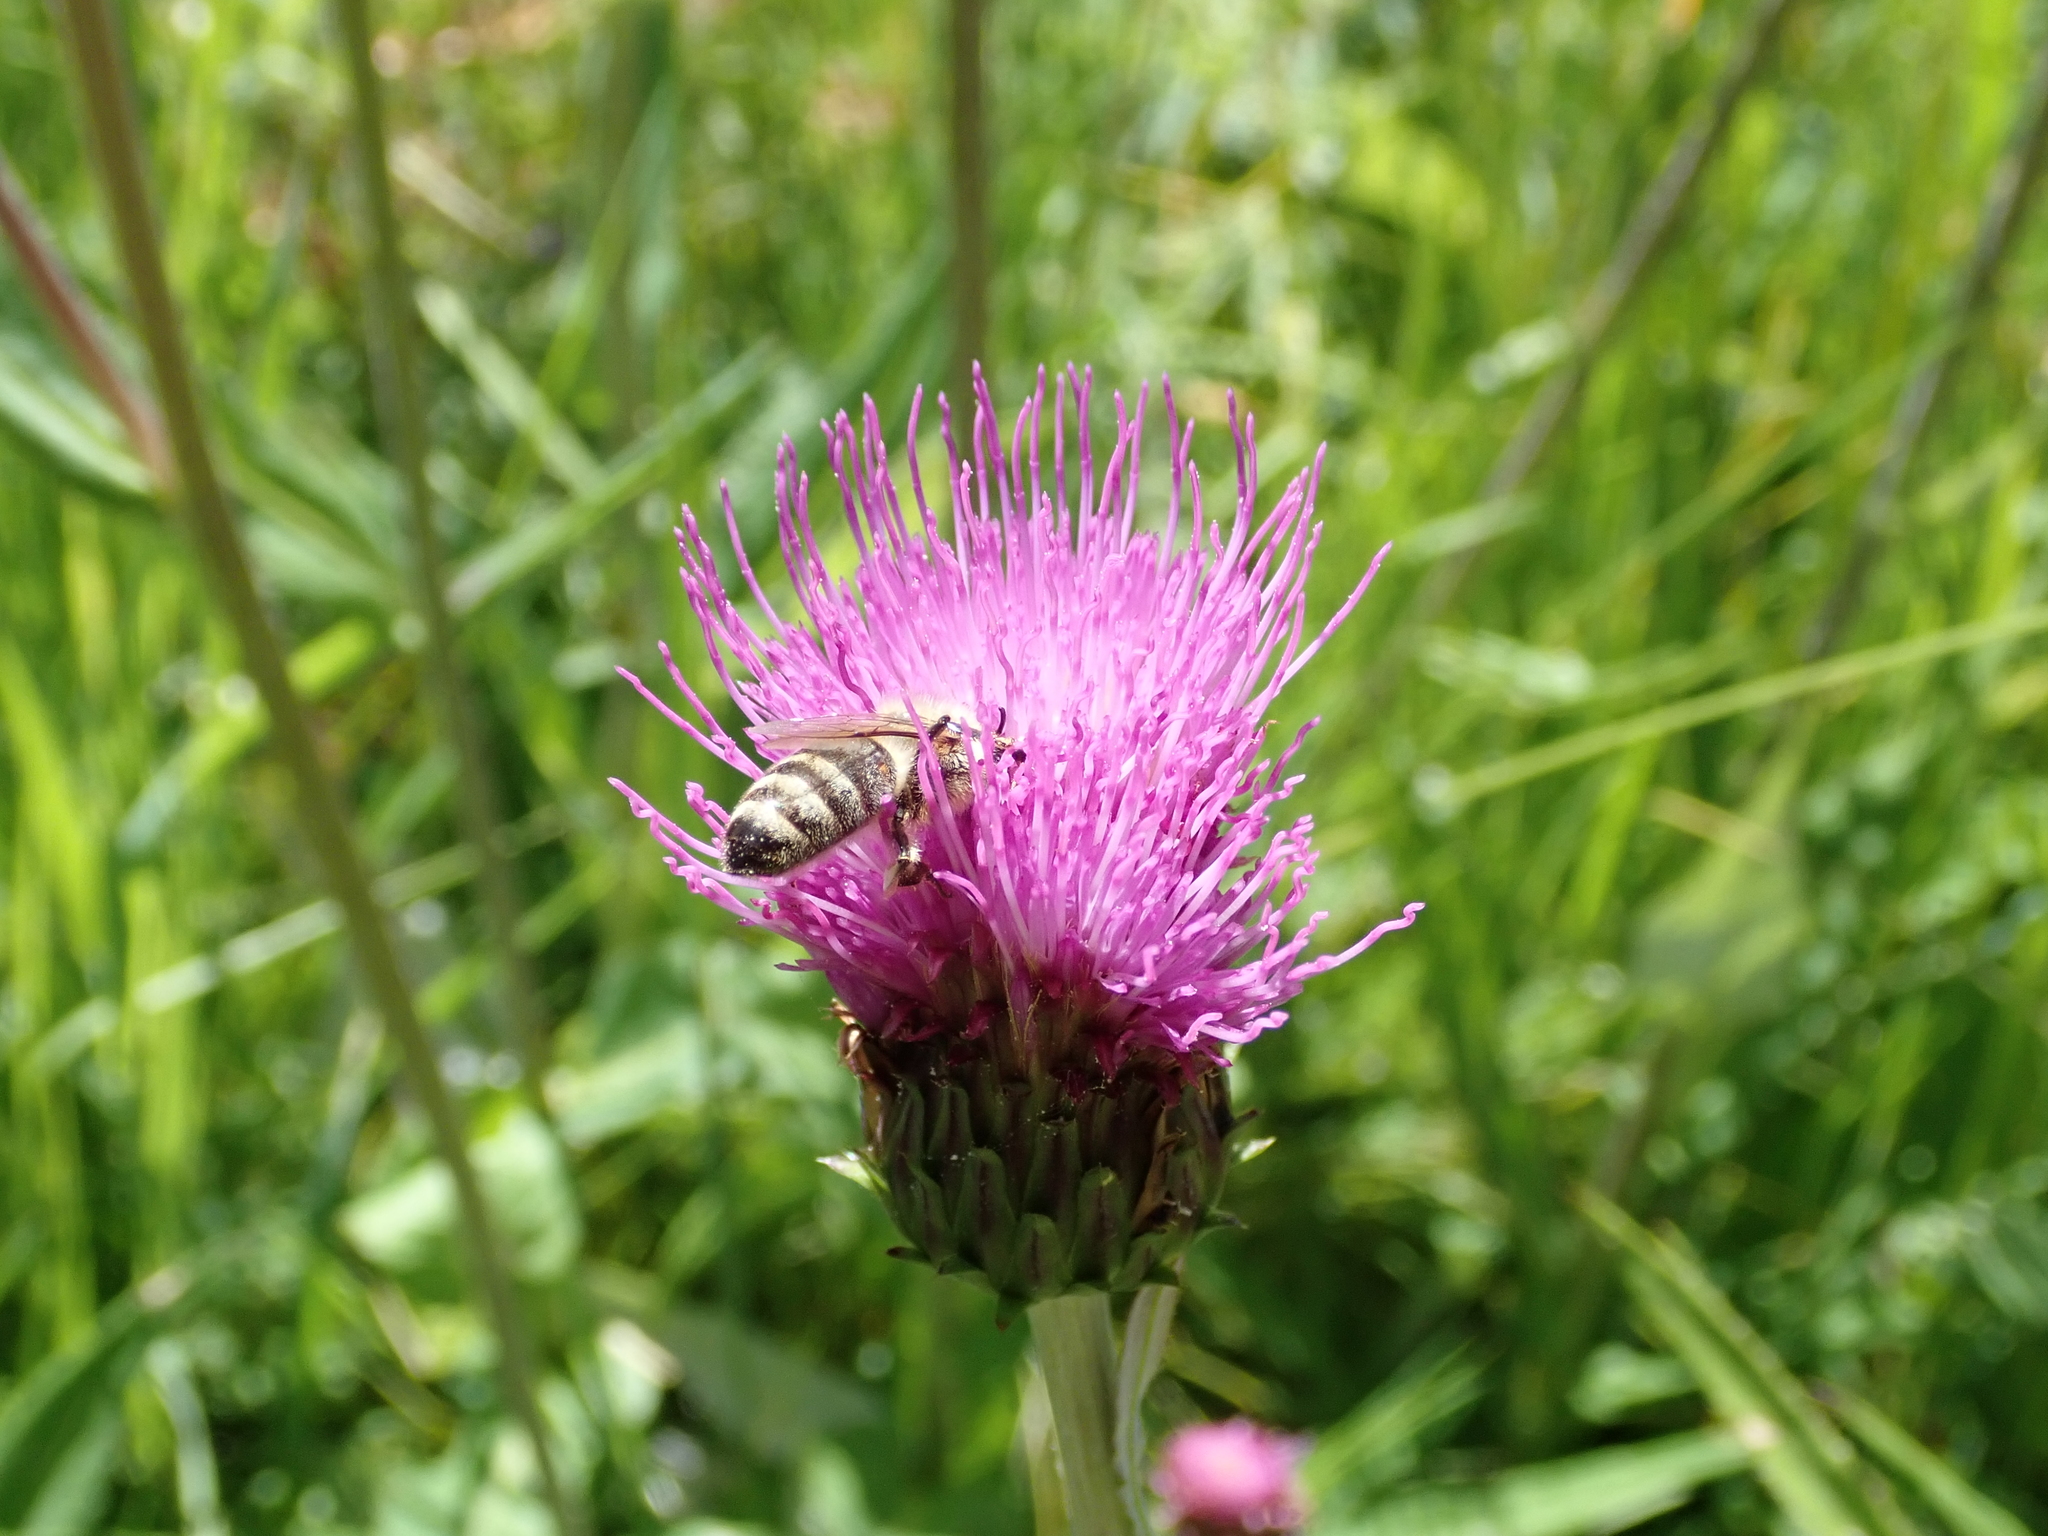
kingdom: Animalia
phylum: Arthropoda
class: Insecta
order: Hymenoptera
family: Apidae
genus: Apis
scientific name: Apis mellifera
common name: Honey bee
